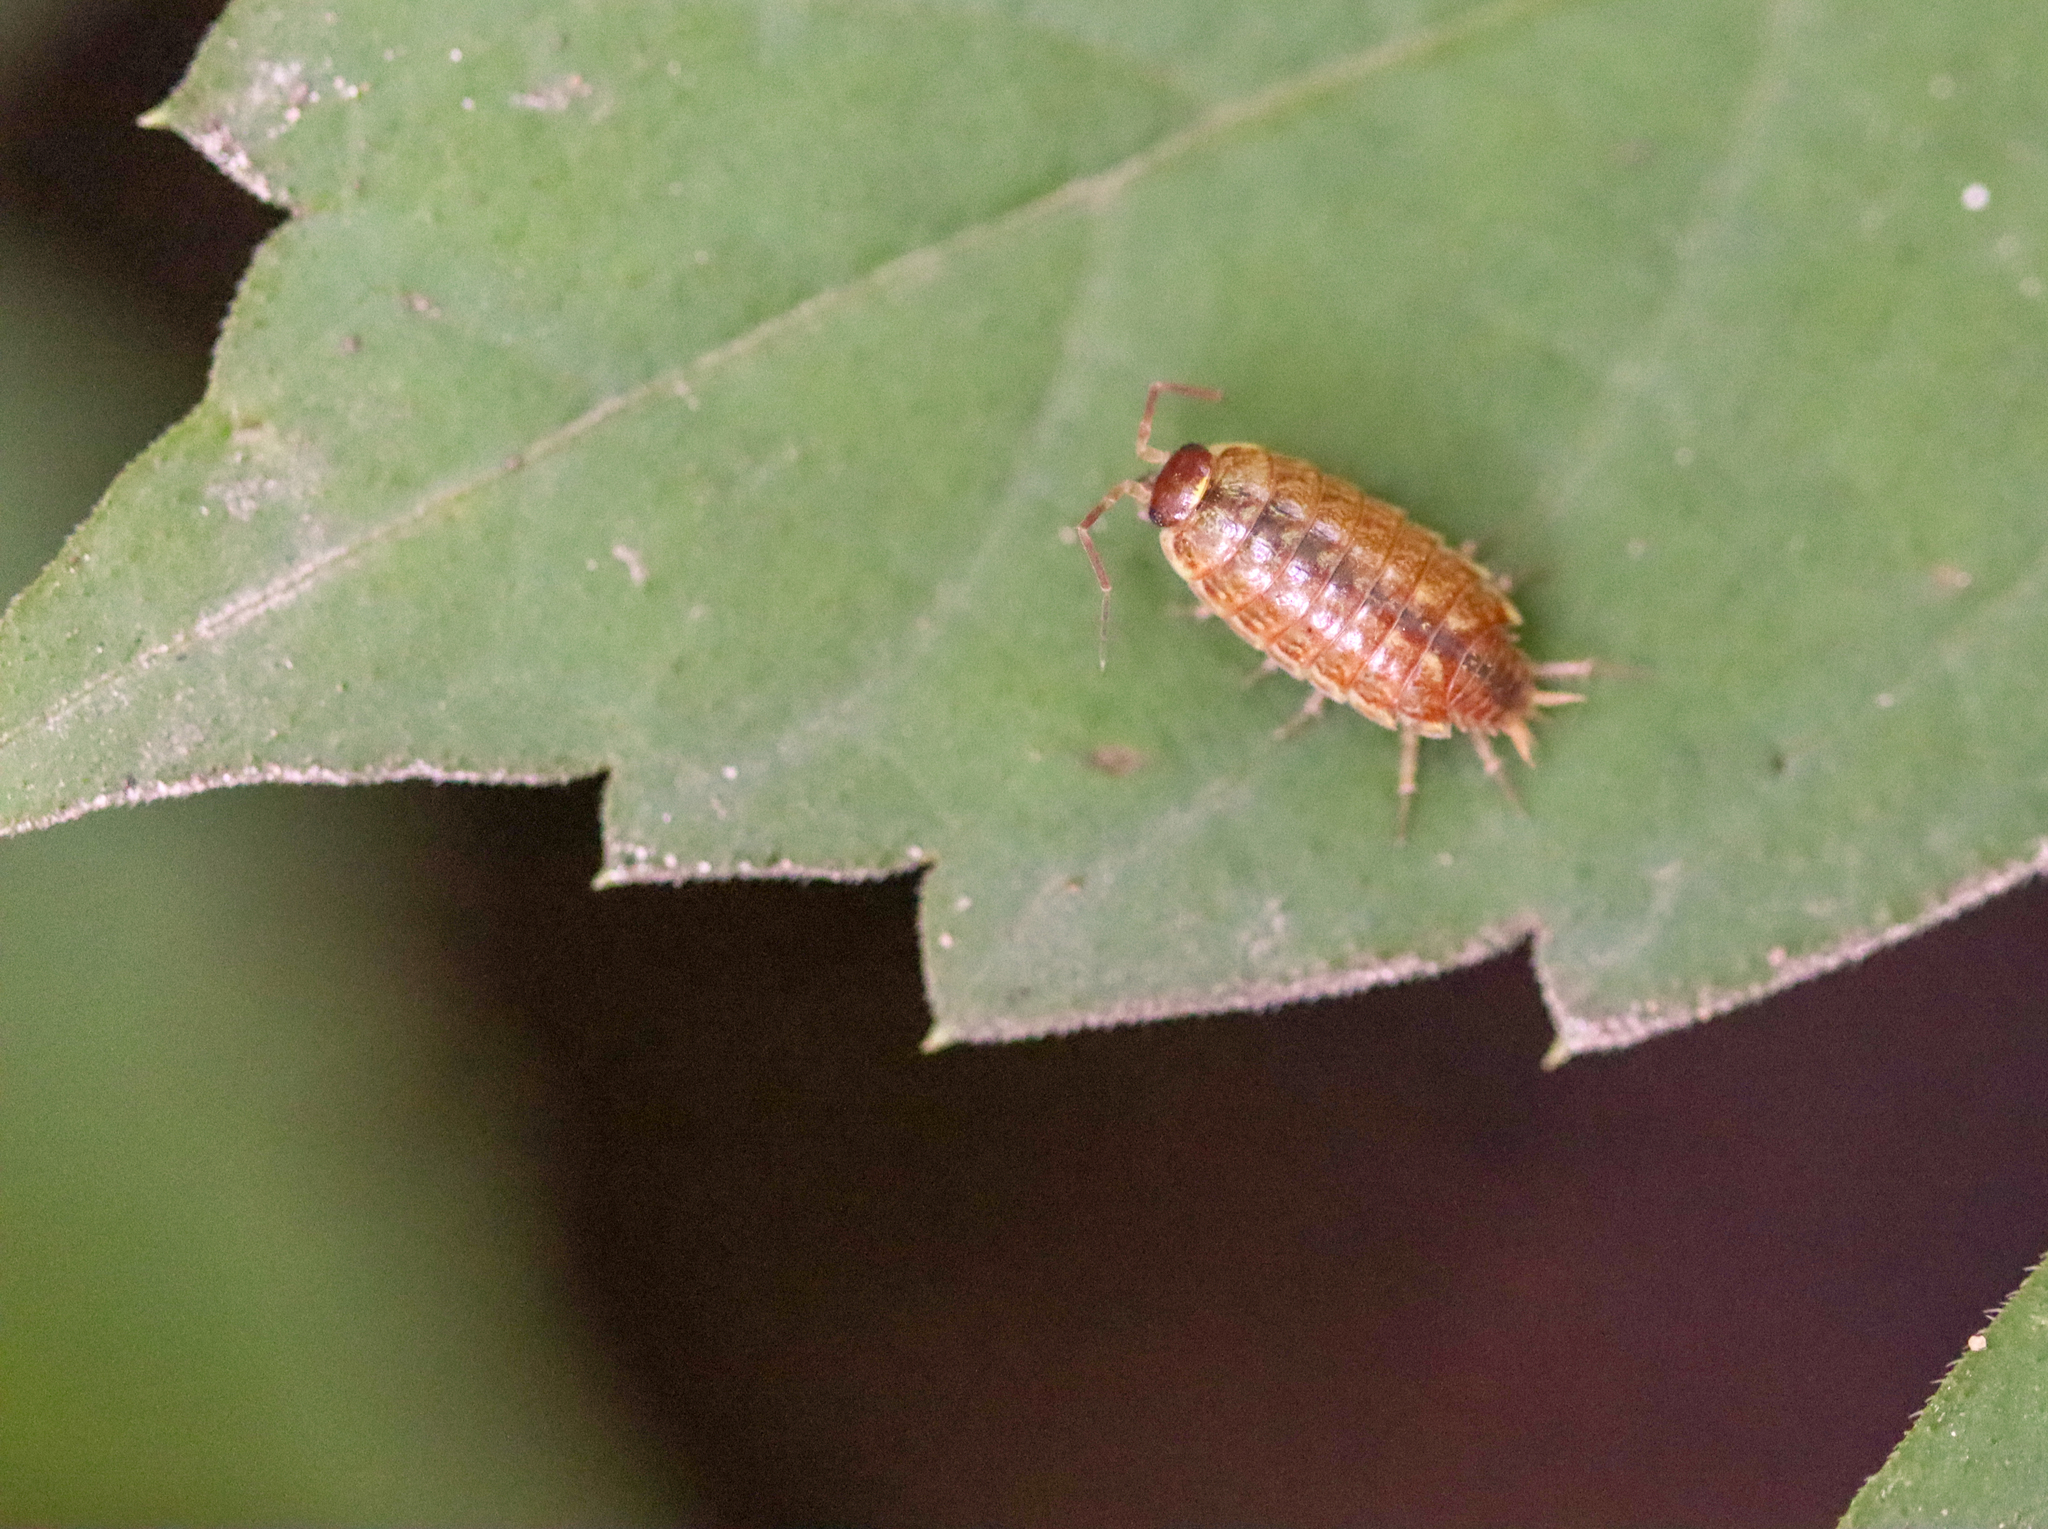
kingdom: Animalia
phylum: Arthropoda
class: Malacostraca
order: Isopoda
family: Philosciidae
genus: Philoscia
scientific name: Philoscia muscorum
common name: Common striped woodlouse
